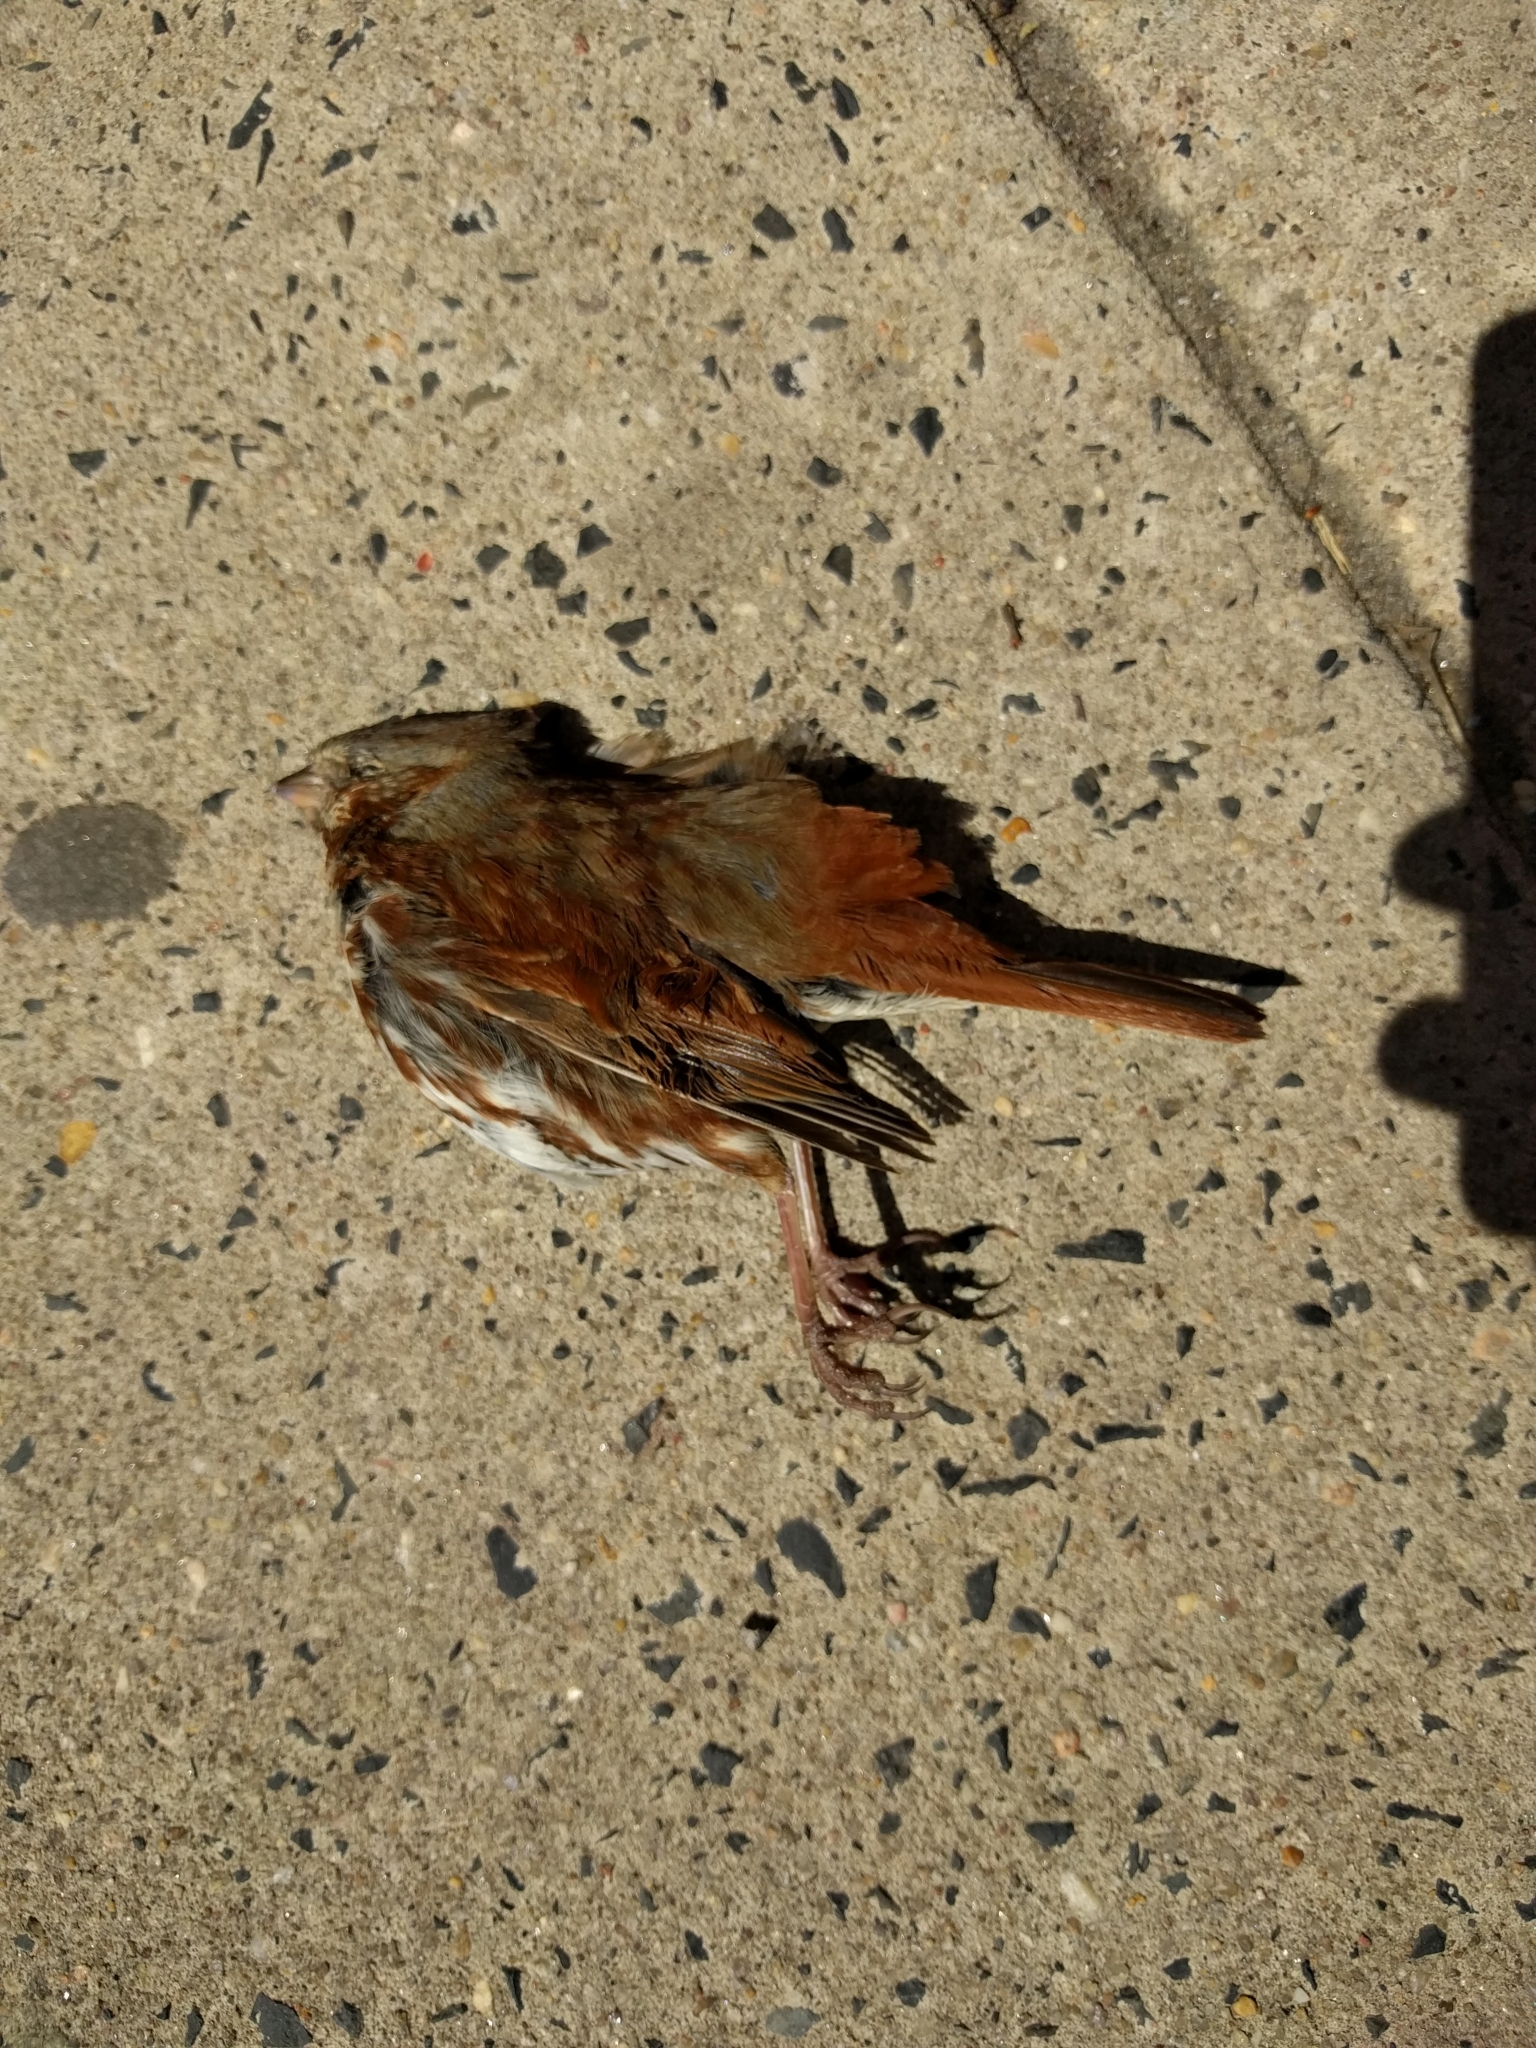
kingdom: Animalia
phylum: Chordata
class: Aves
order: Passeriformes
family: Passerellidae
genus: Passerella
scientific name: Passerella iliaca
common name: Fox sparrow
